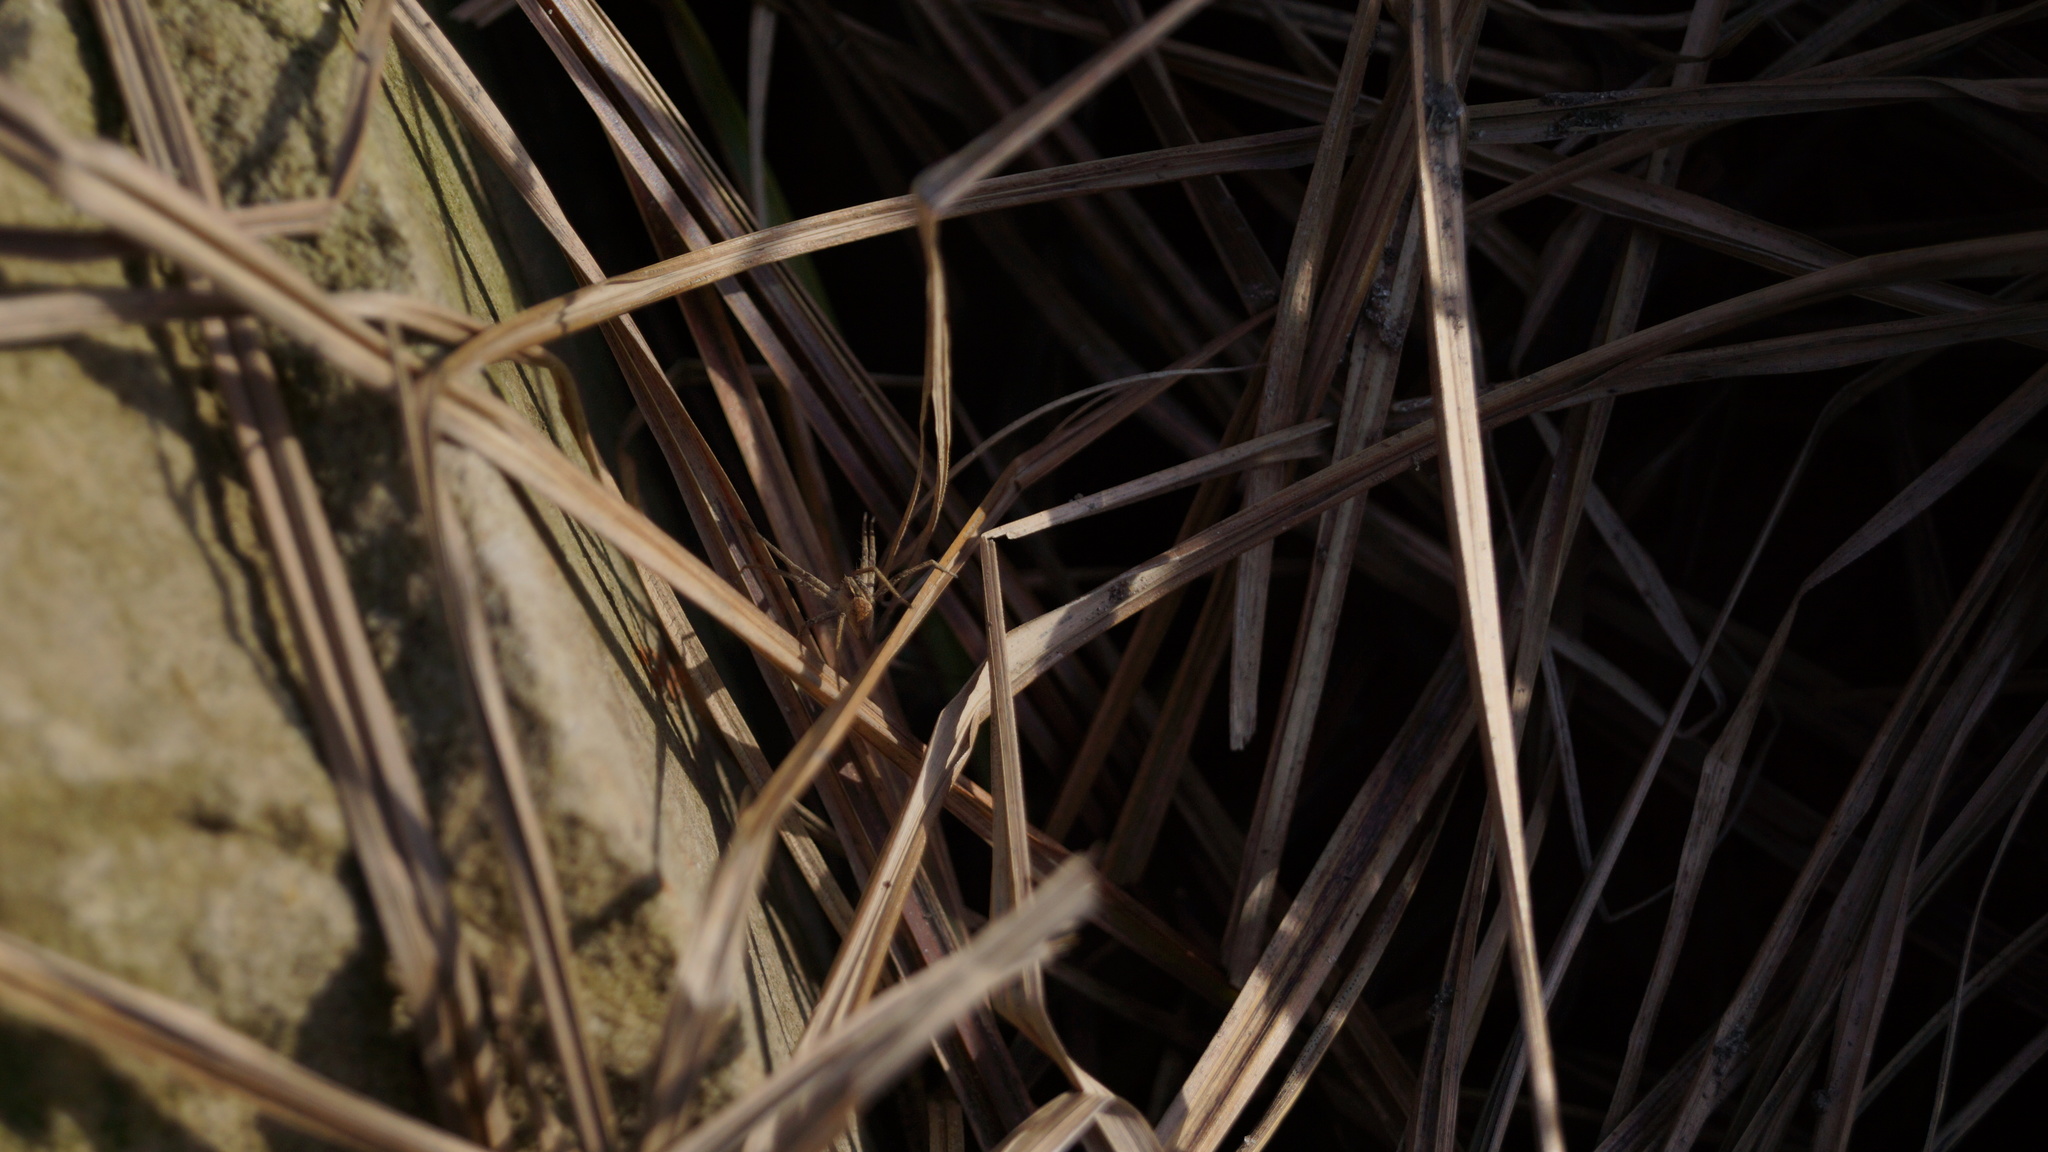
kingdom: Animalia
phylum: Arthropoda
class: Arachnida
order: Araneae
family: Pisauridae
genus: Pisaura
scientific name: Pisaura
